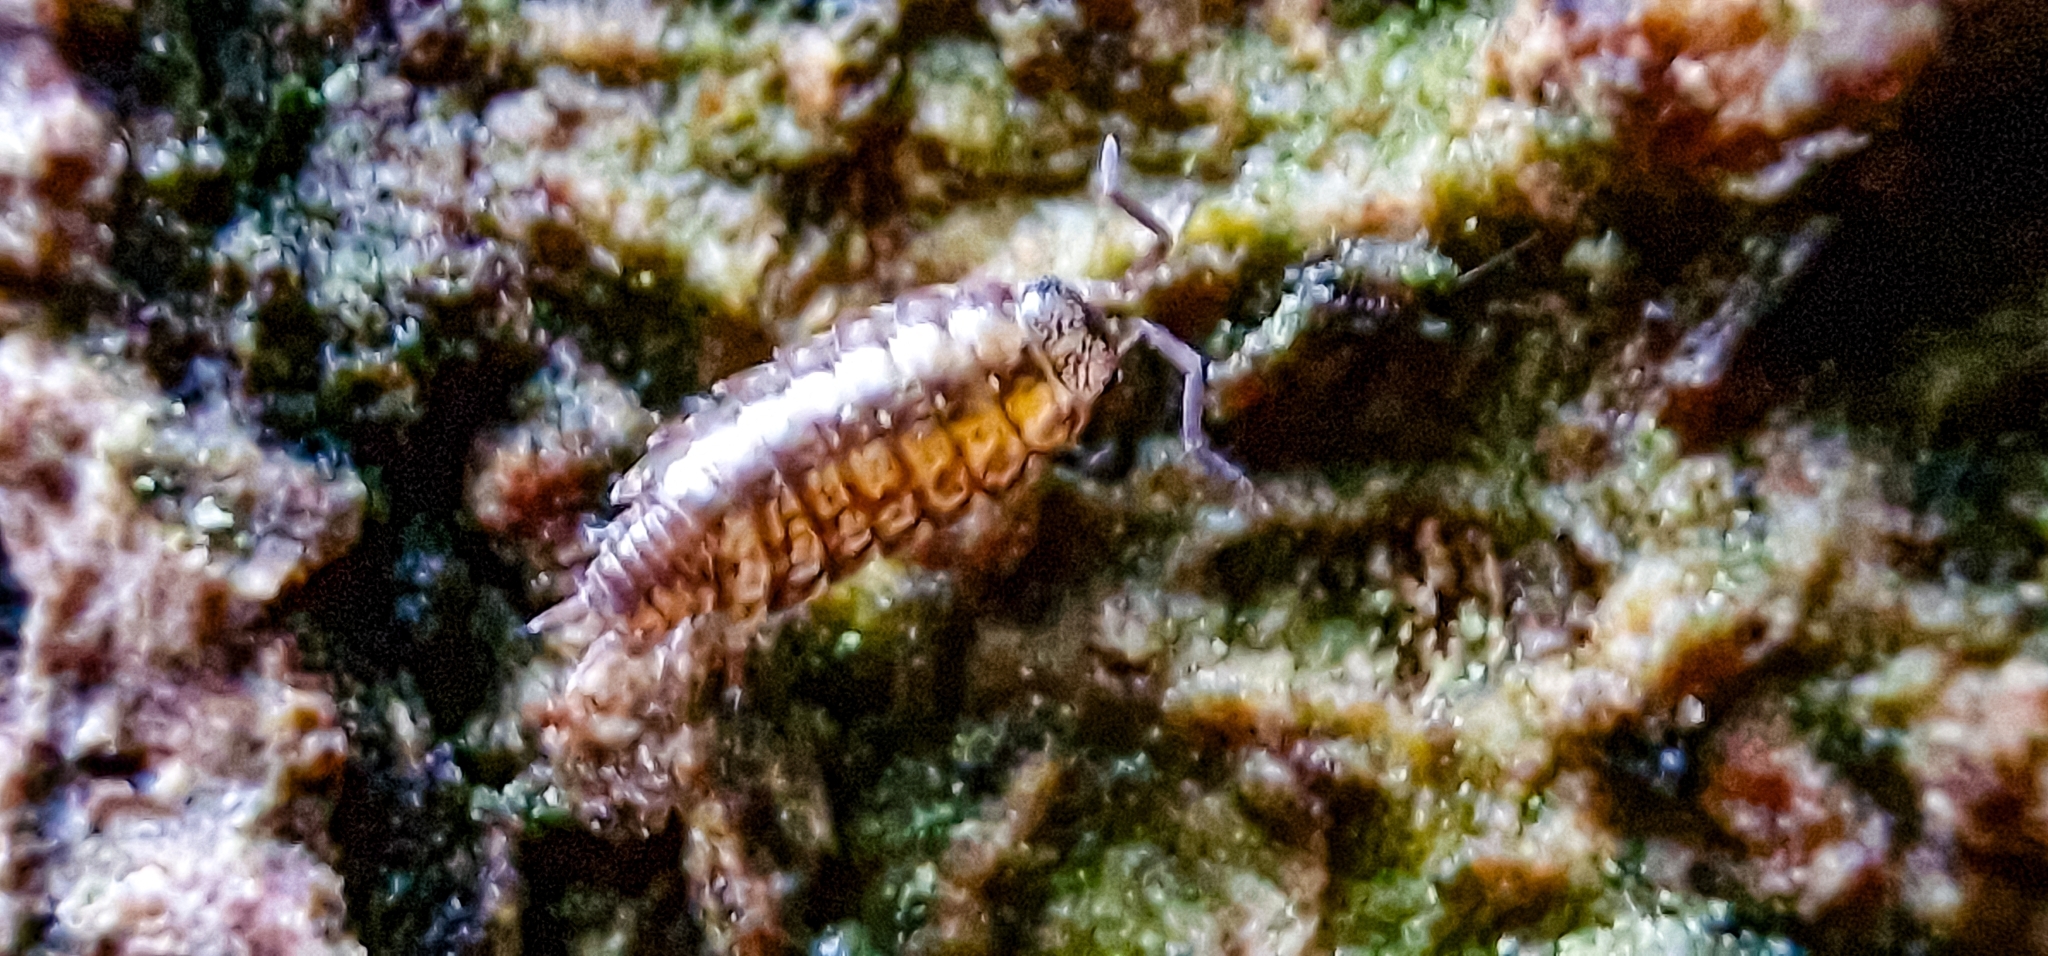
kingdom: Animalia
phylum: Arthropoda
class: Malacostraca
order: Isopoda
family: Philosciidae
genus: Philoscia
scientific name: Philoscia affinis
